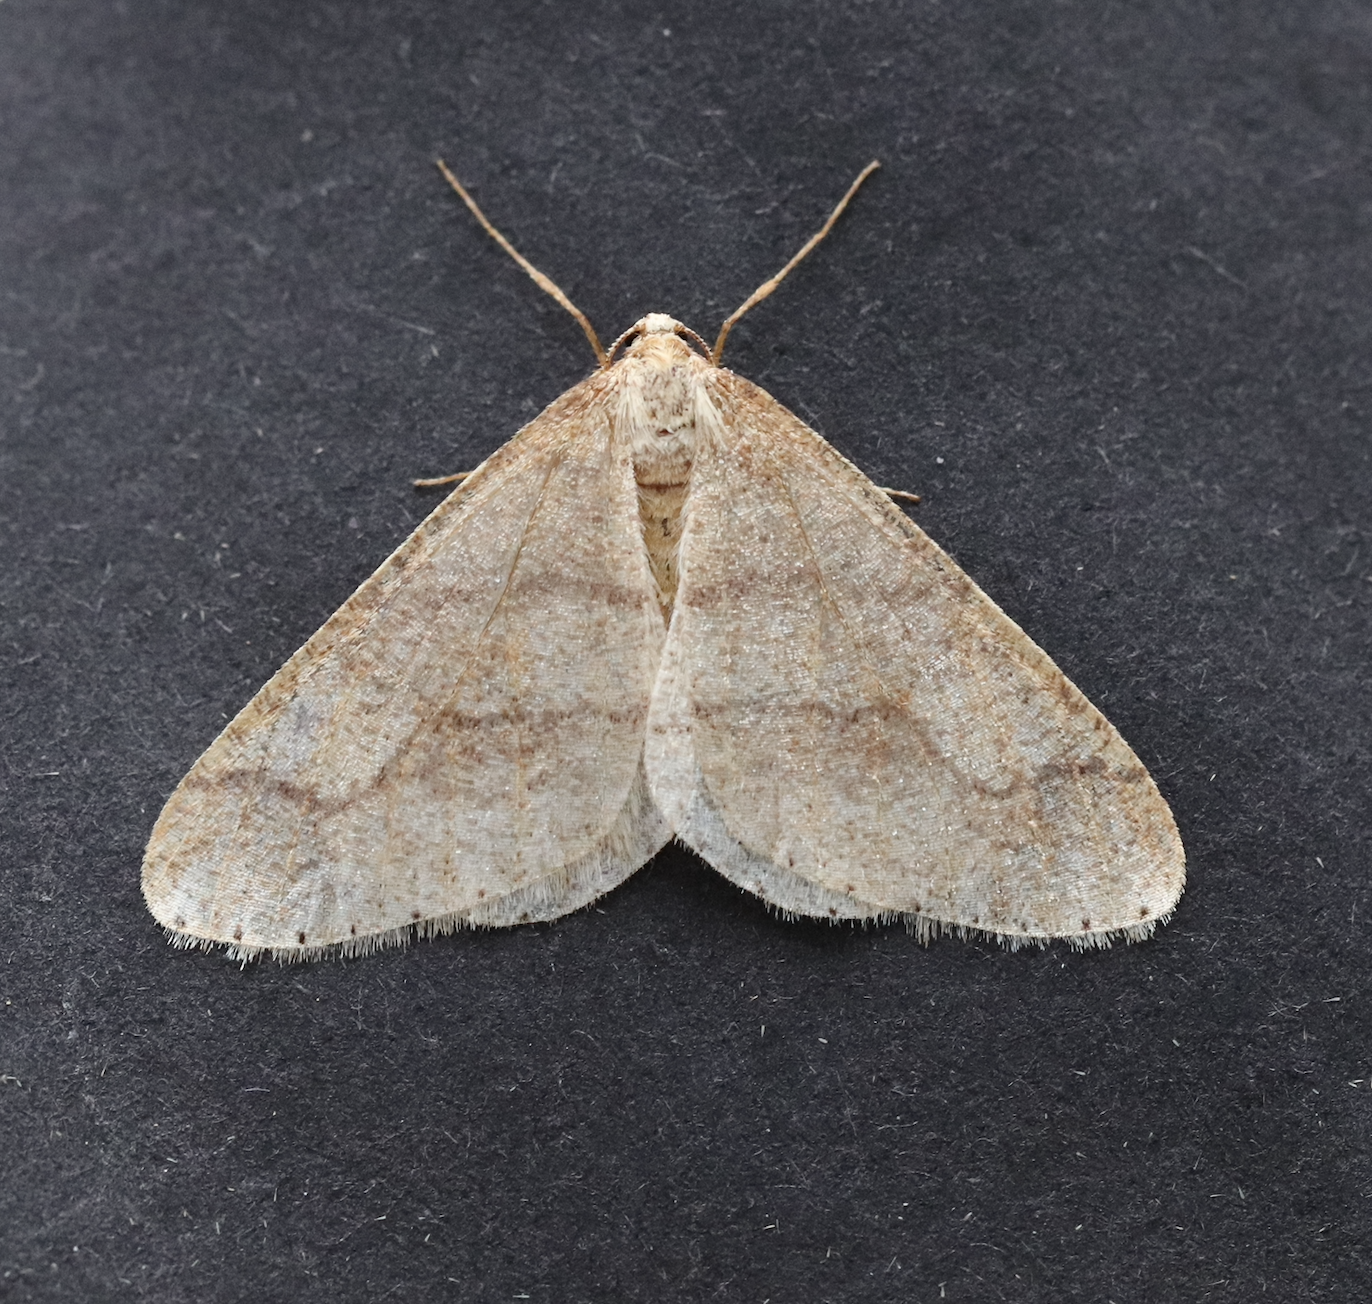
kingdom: Animalia
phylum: Arthropoda
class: Insecta
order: Lepidoptera
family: Geometridae
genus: Agriopis
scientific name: Agriopis marginaria
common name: Dotted border
